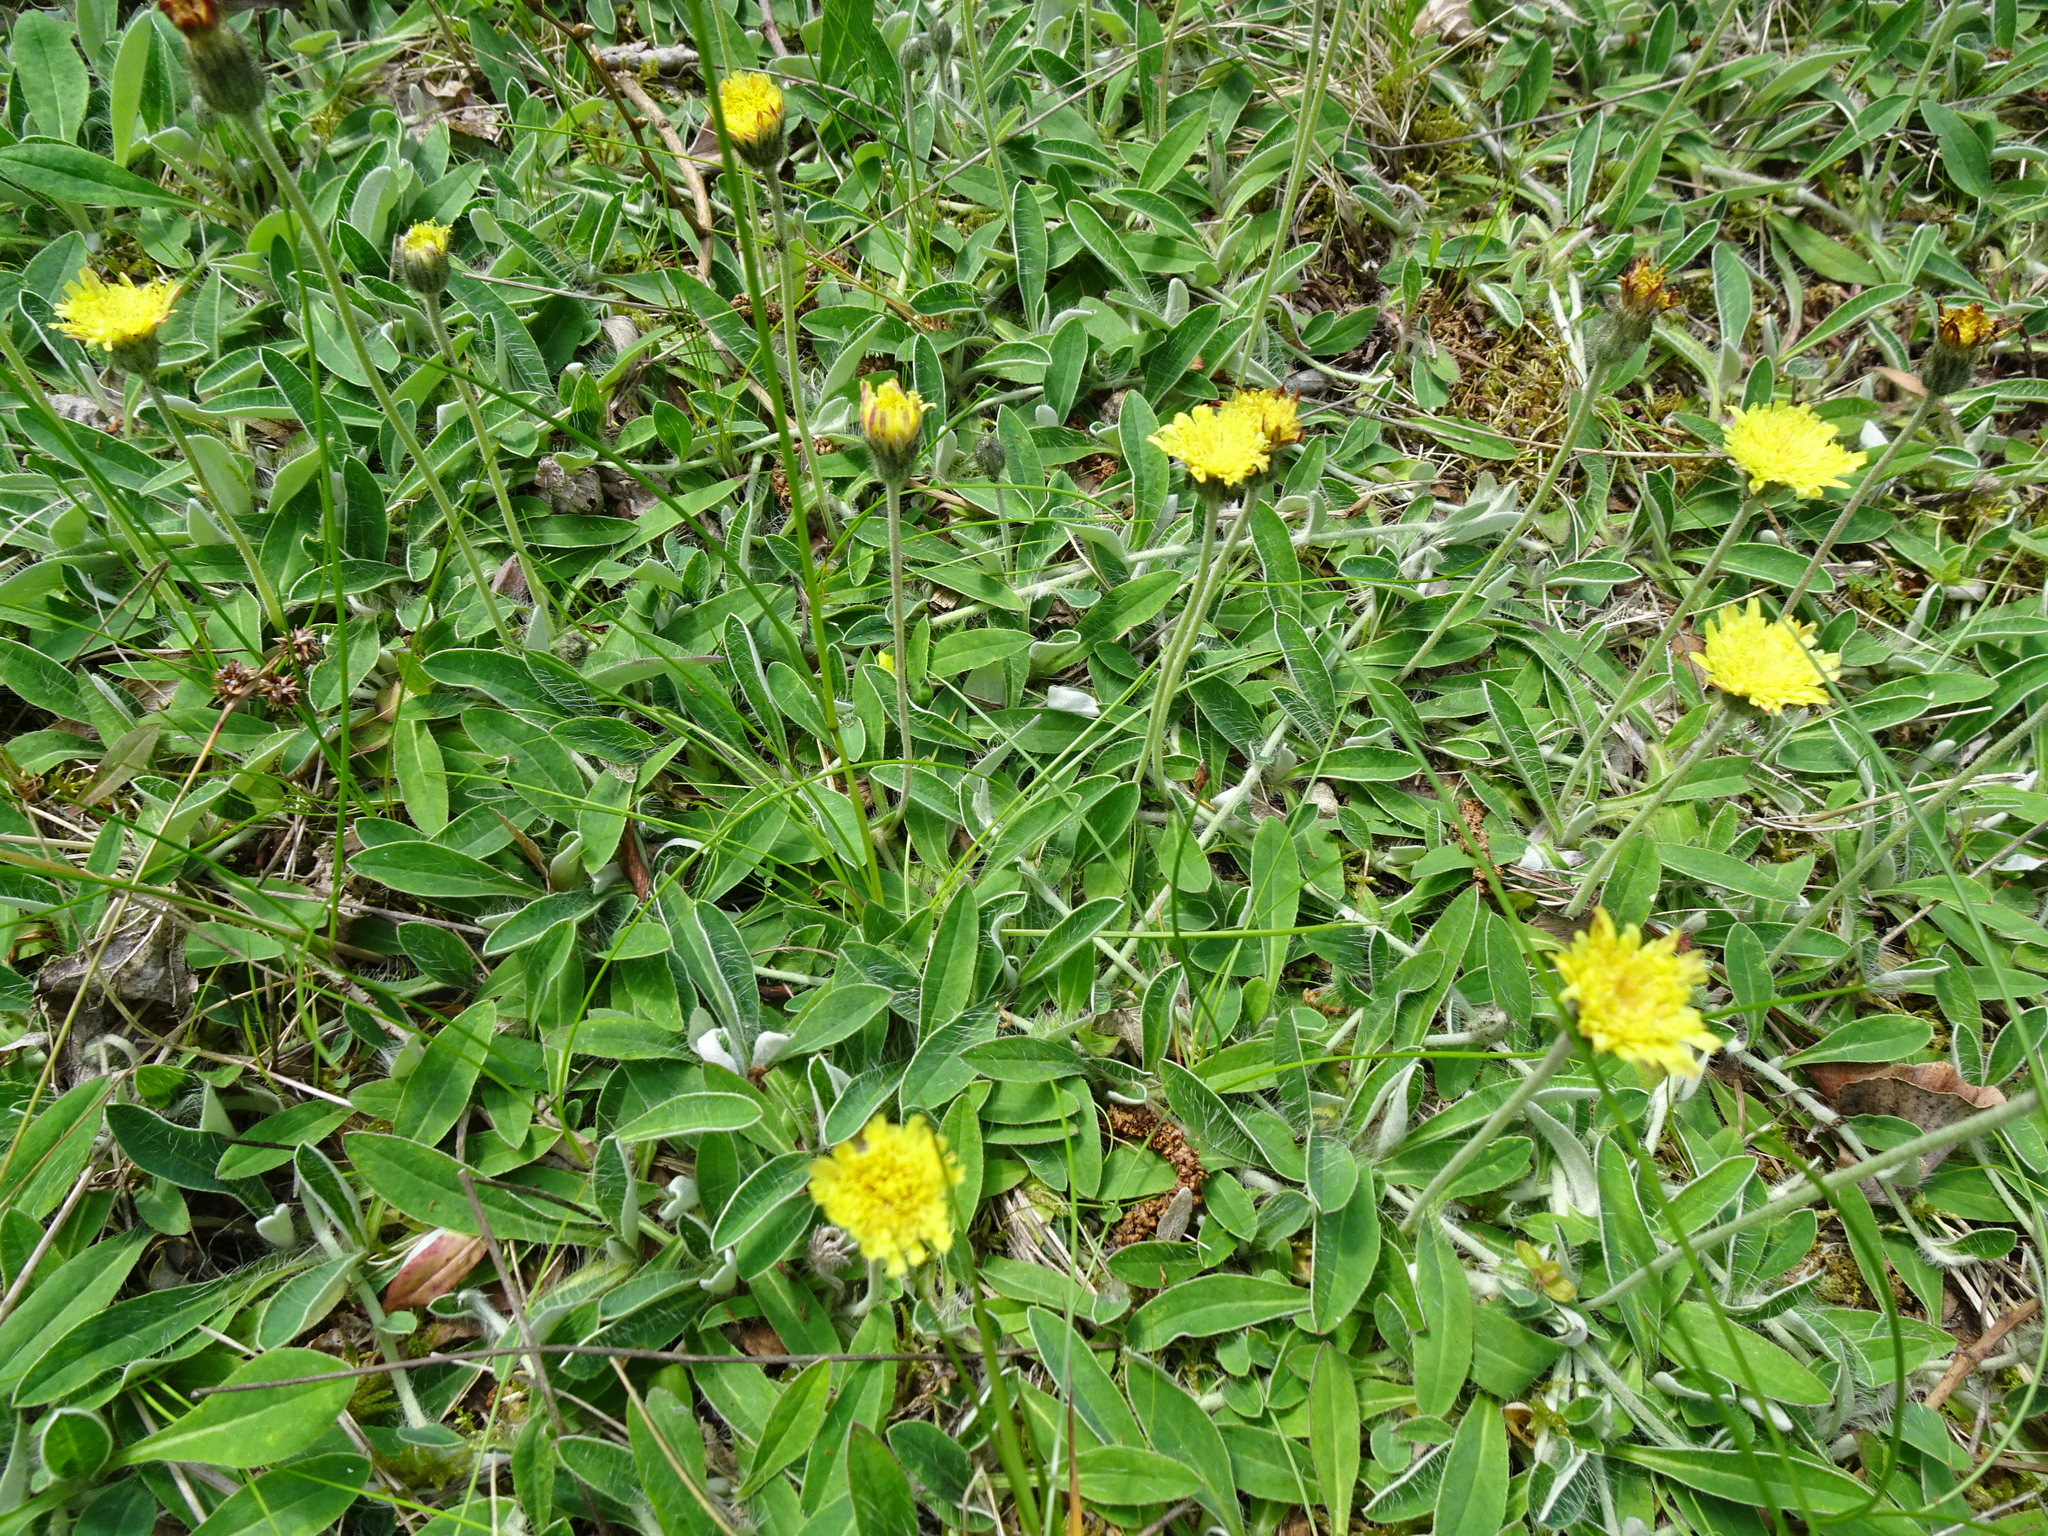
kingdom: Plantae
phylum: Tracheophyta
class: Magnoliopsida
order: Asterales
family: Asteraceae
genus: Pilosella
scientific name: Pilosella officinarum
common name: Mouse-ear hawkweed
